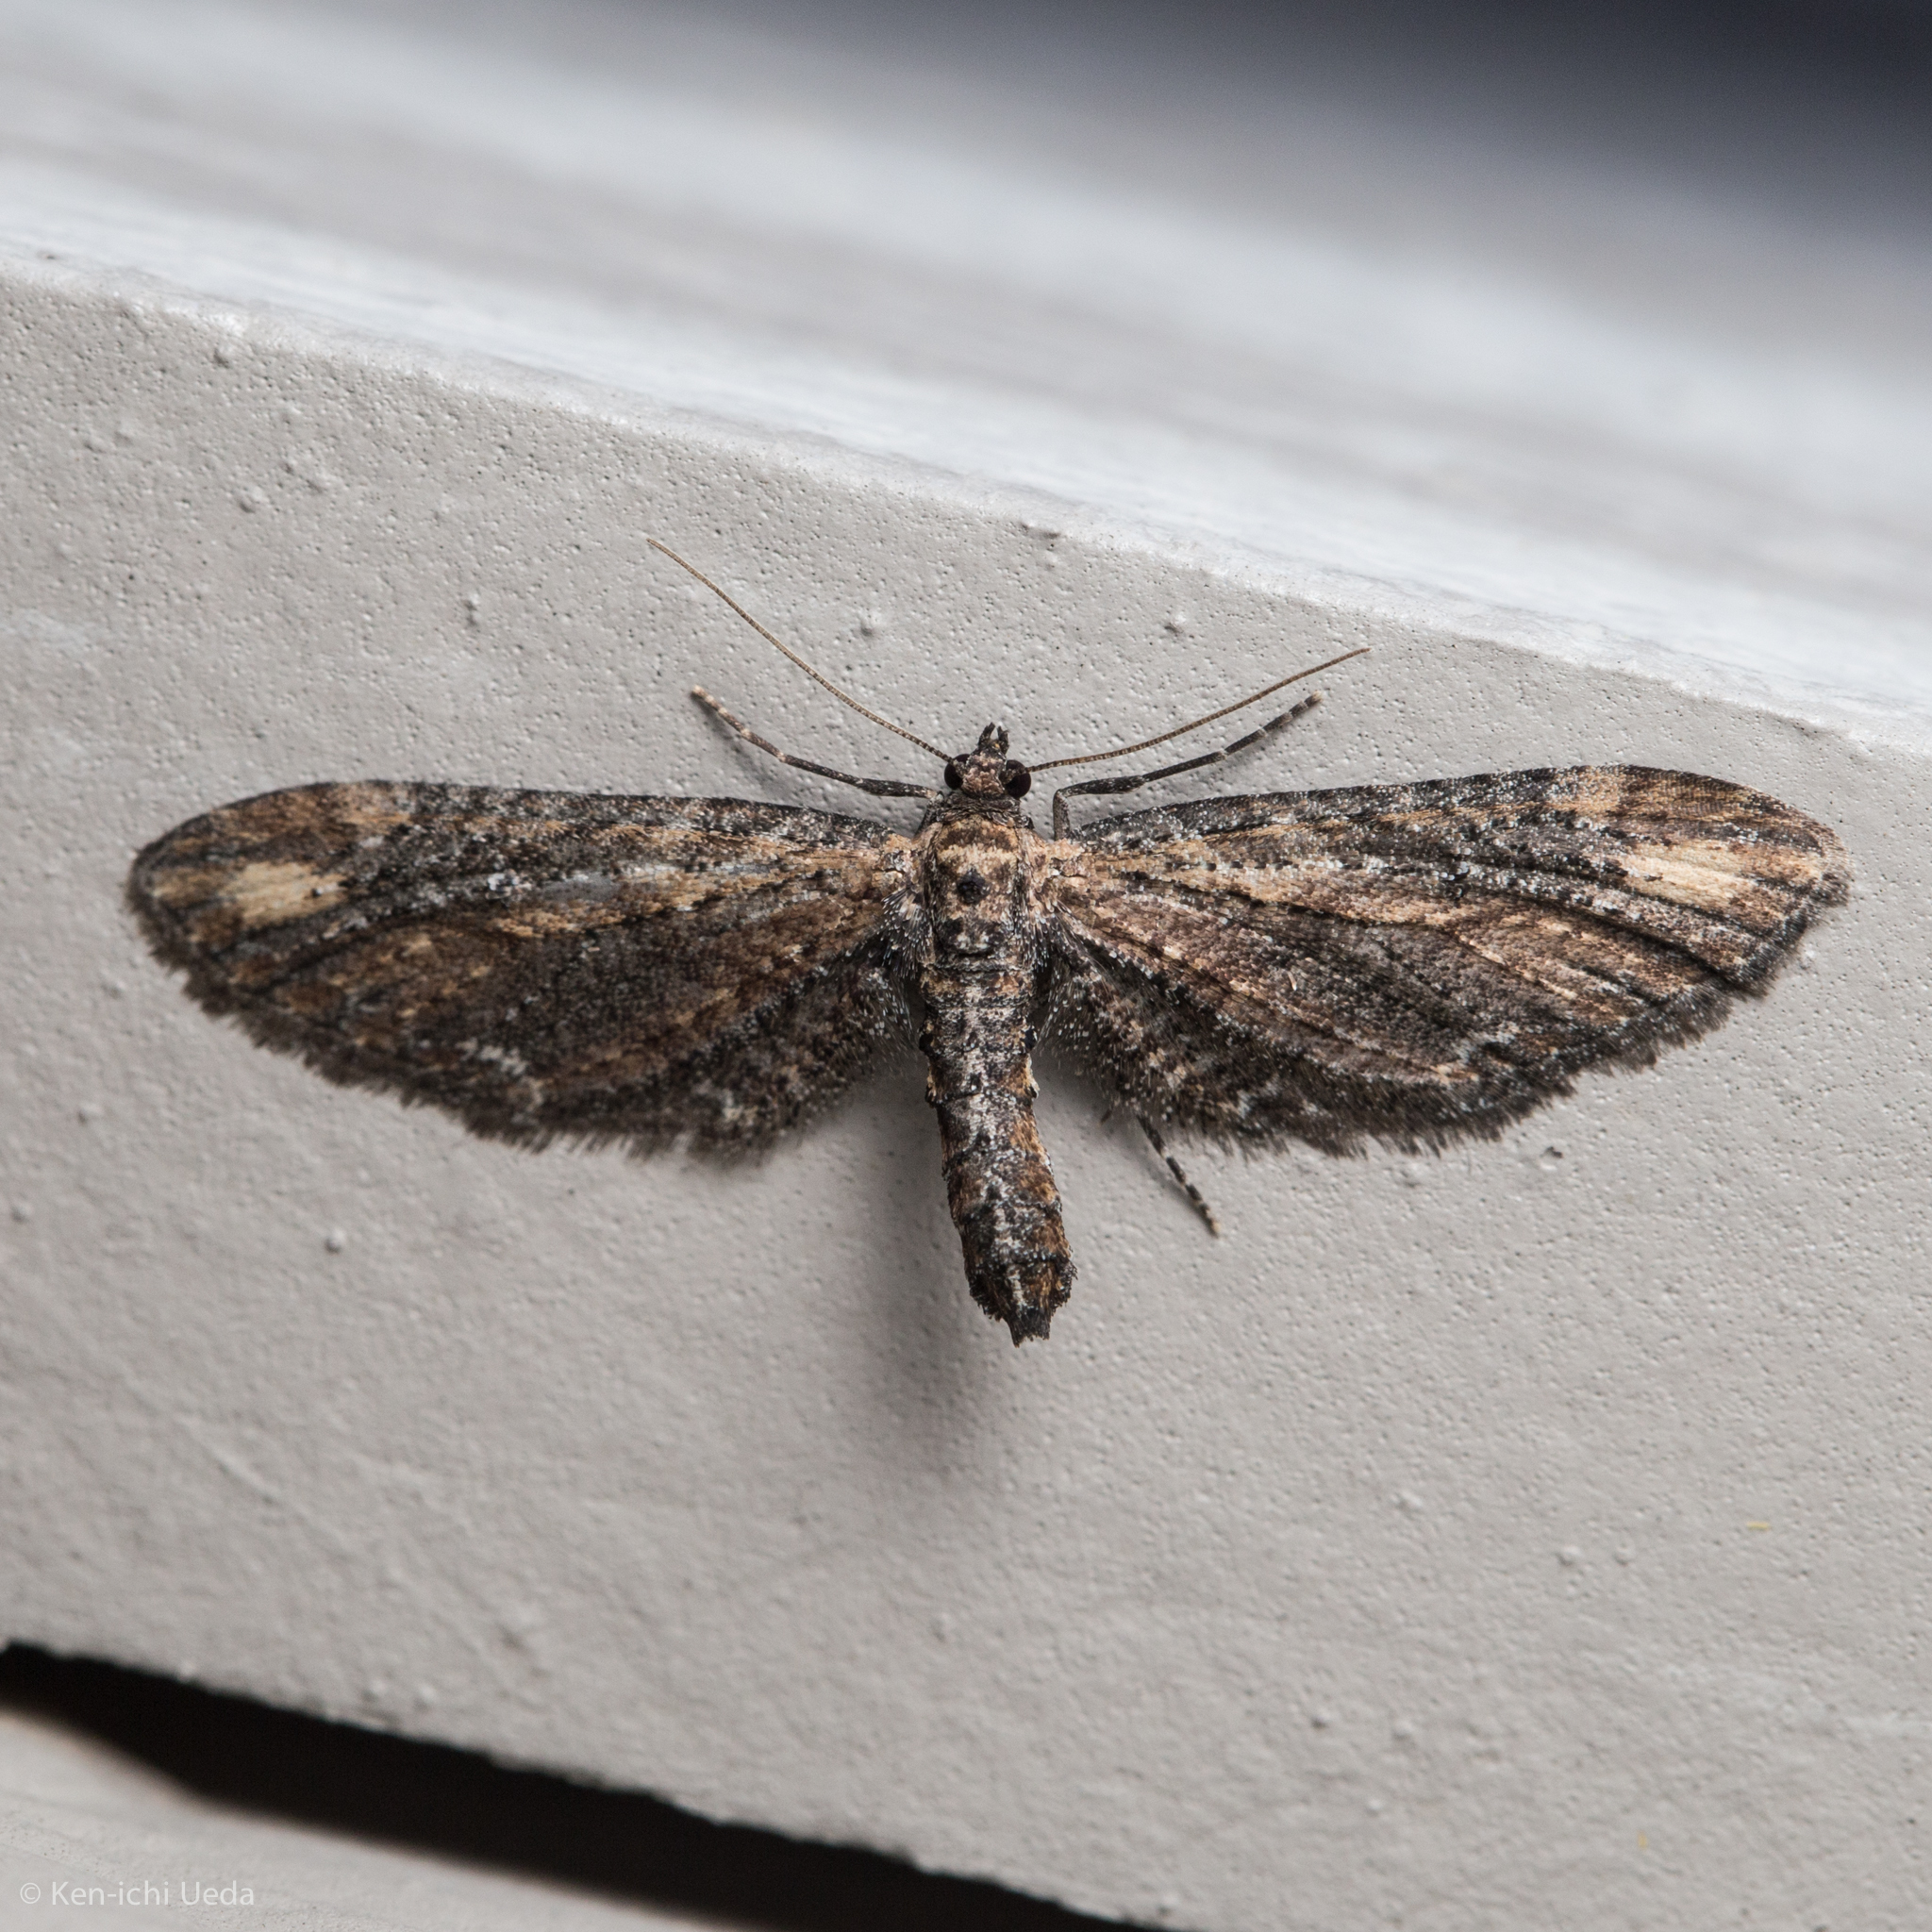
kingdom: Animalia
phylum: Arthropoda
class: Insecta
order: Lepidoptera
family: Geometridae
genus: Eupithecia
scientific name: Eupithecia subapicata
